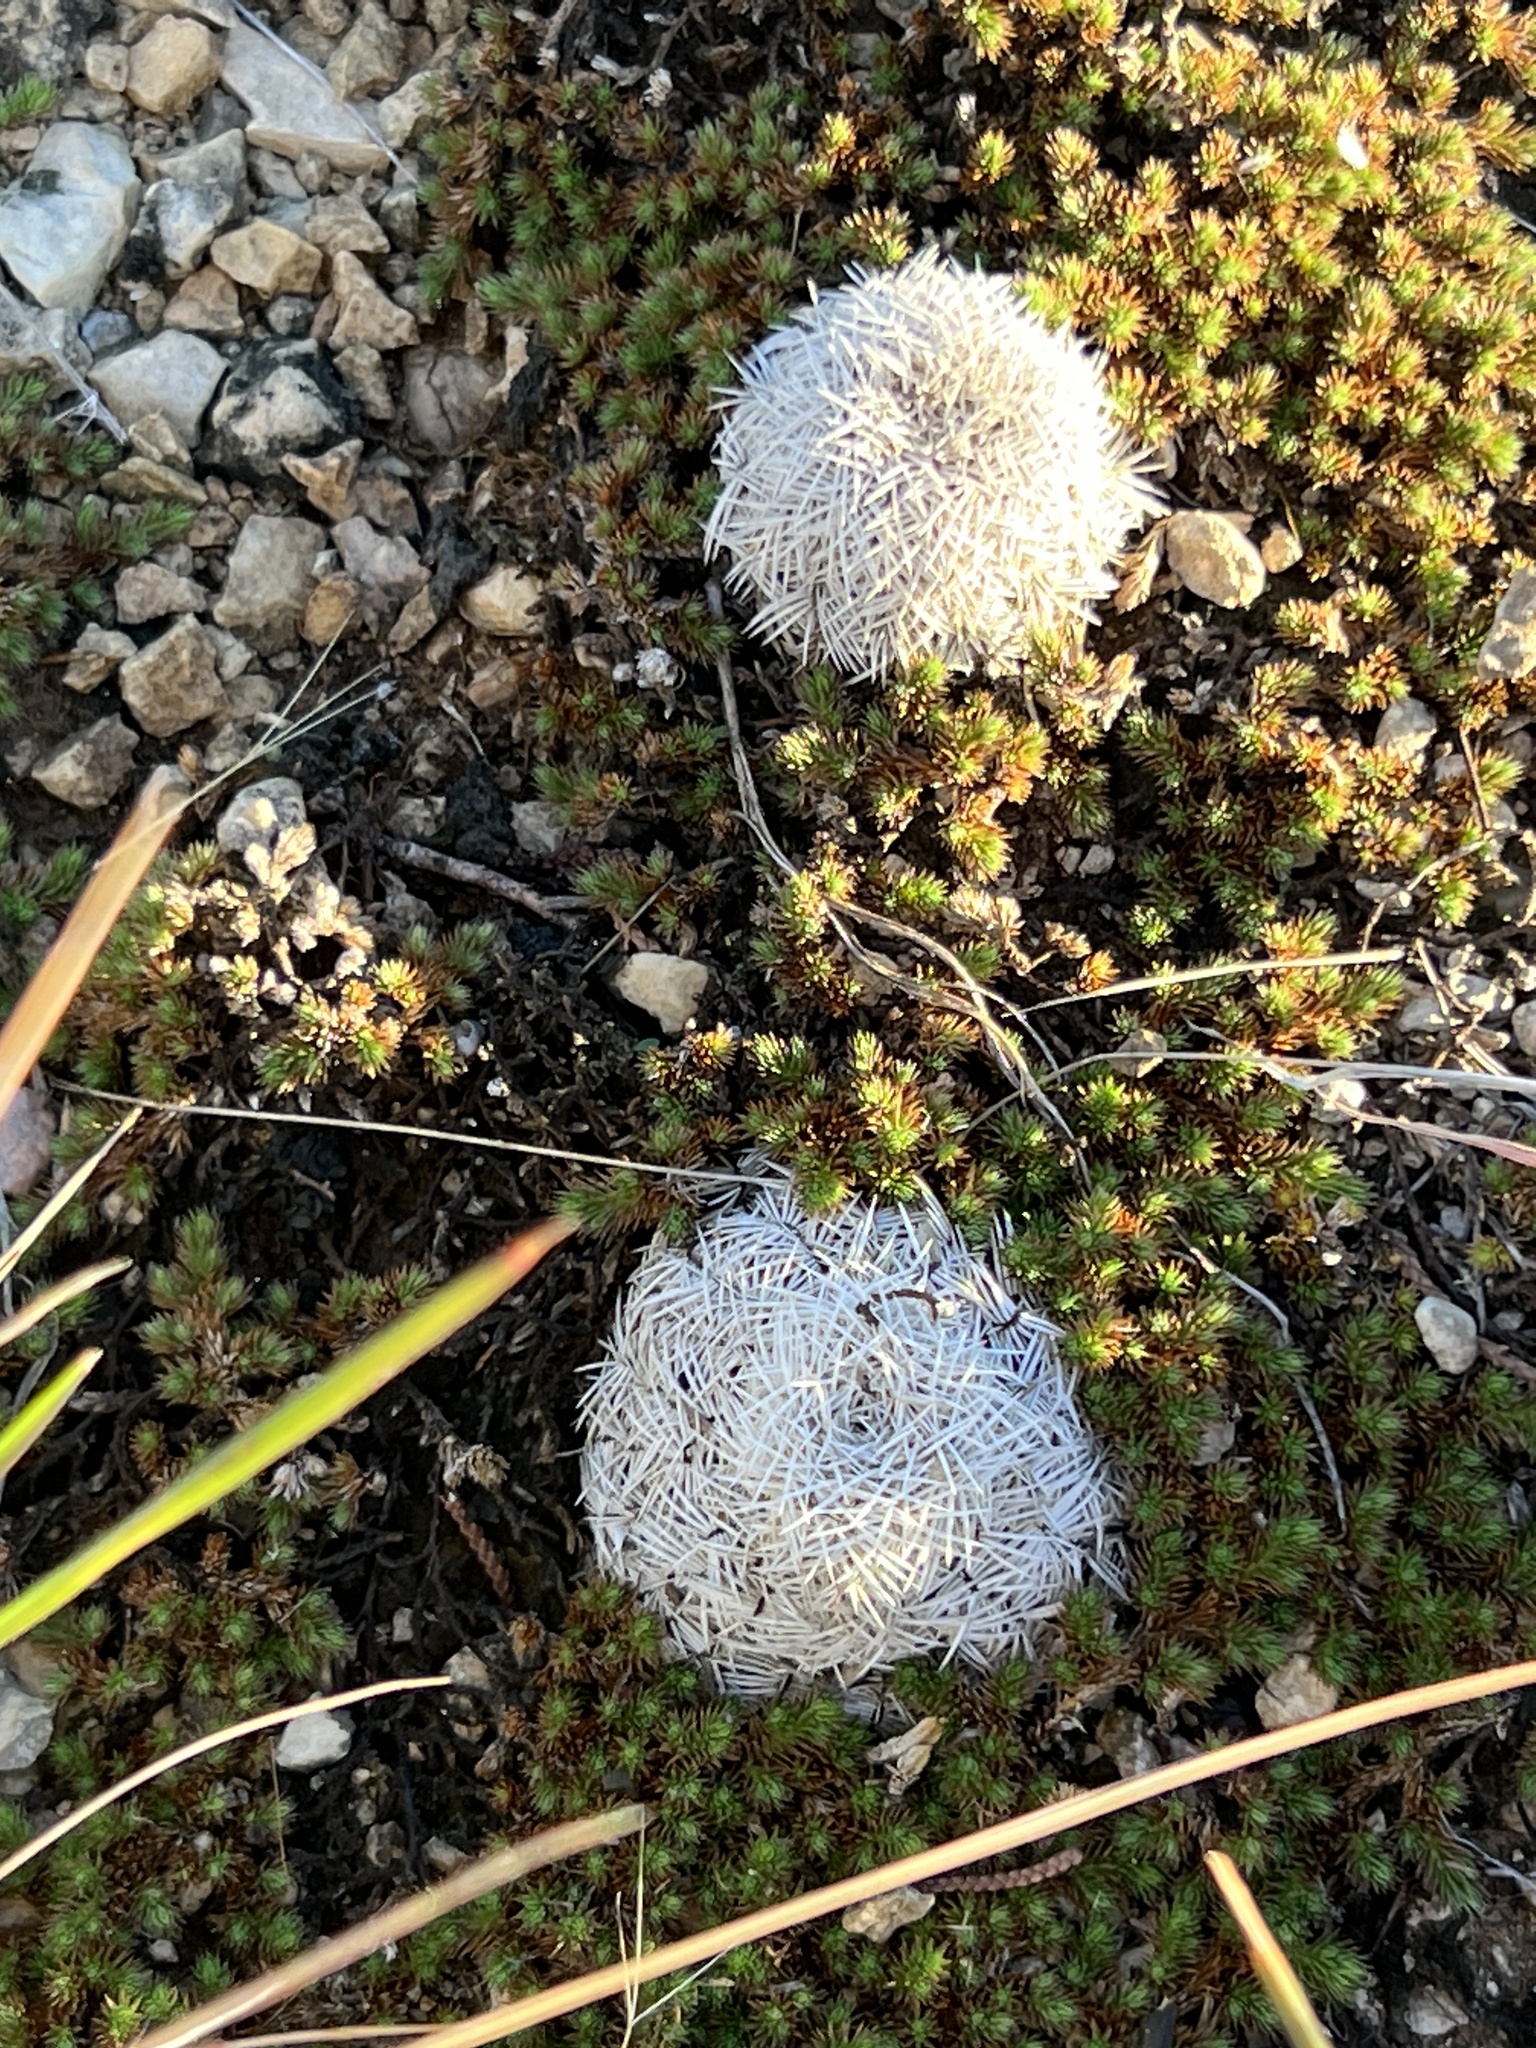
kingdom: Plantae
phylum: Tracheophyta
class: Magnoliopsida
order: Caryophyllales
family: Cactaceae
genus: Echinocereus
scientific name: Echinocereus reichenbachii
